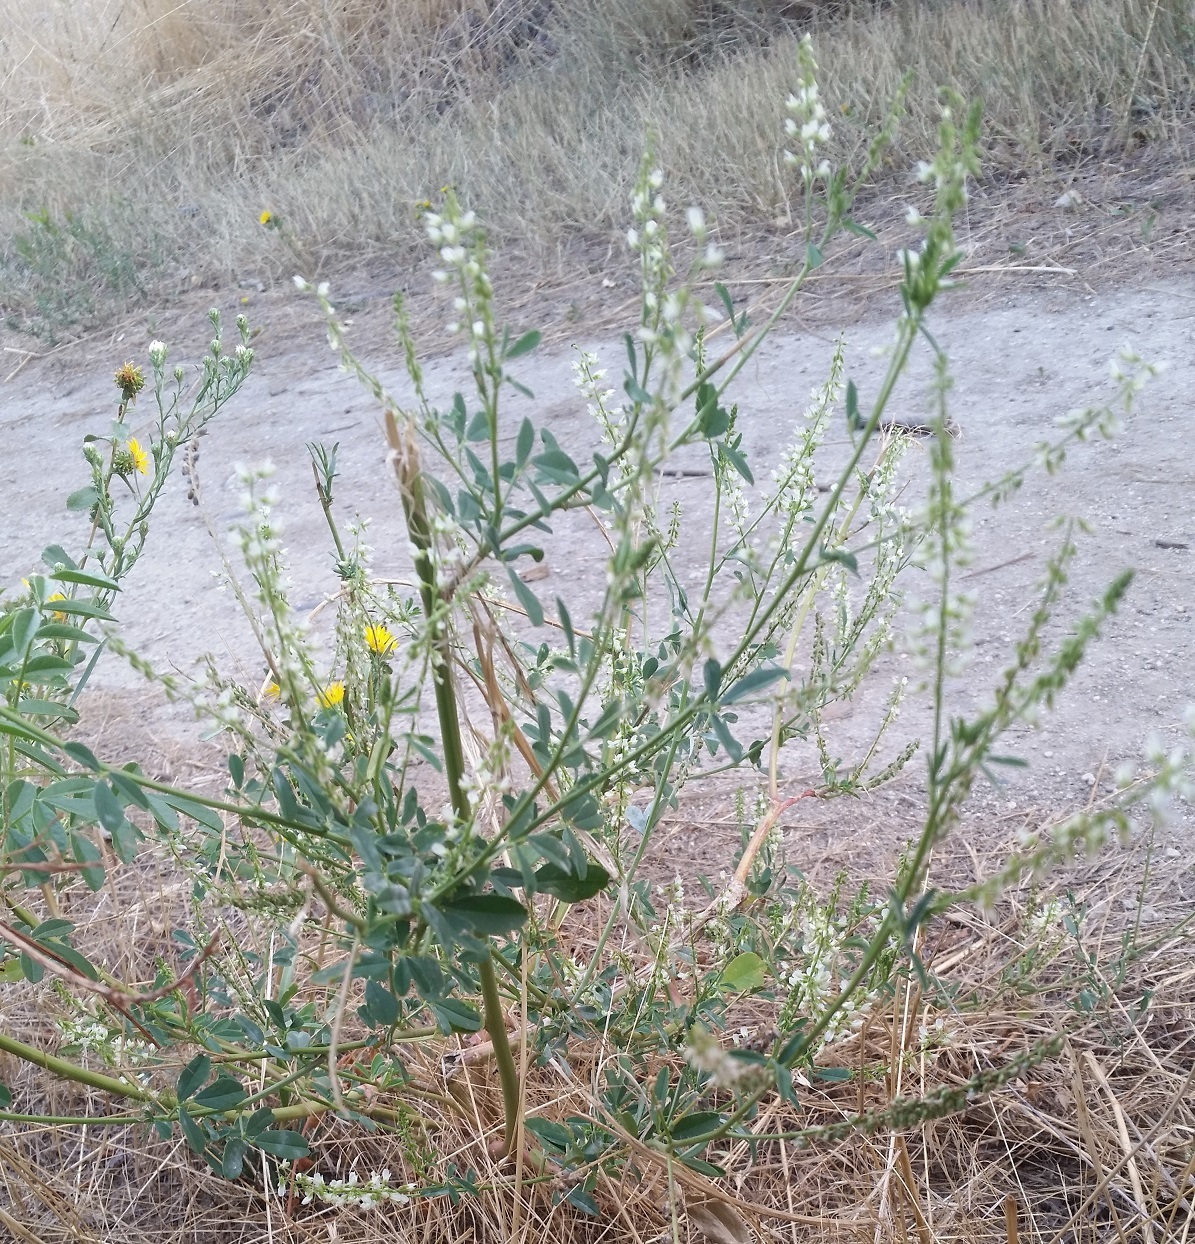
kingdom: Plantae
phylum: Tracheophyta
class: Magnoliopsida
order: Fabales
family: Fabaceae
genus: Melilotus
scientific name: Melilotus albus
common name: White melilot
